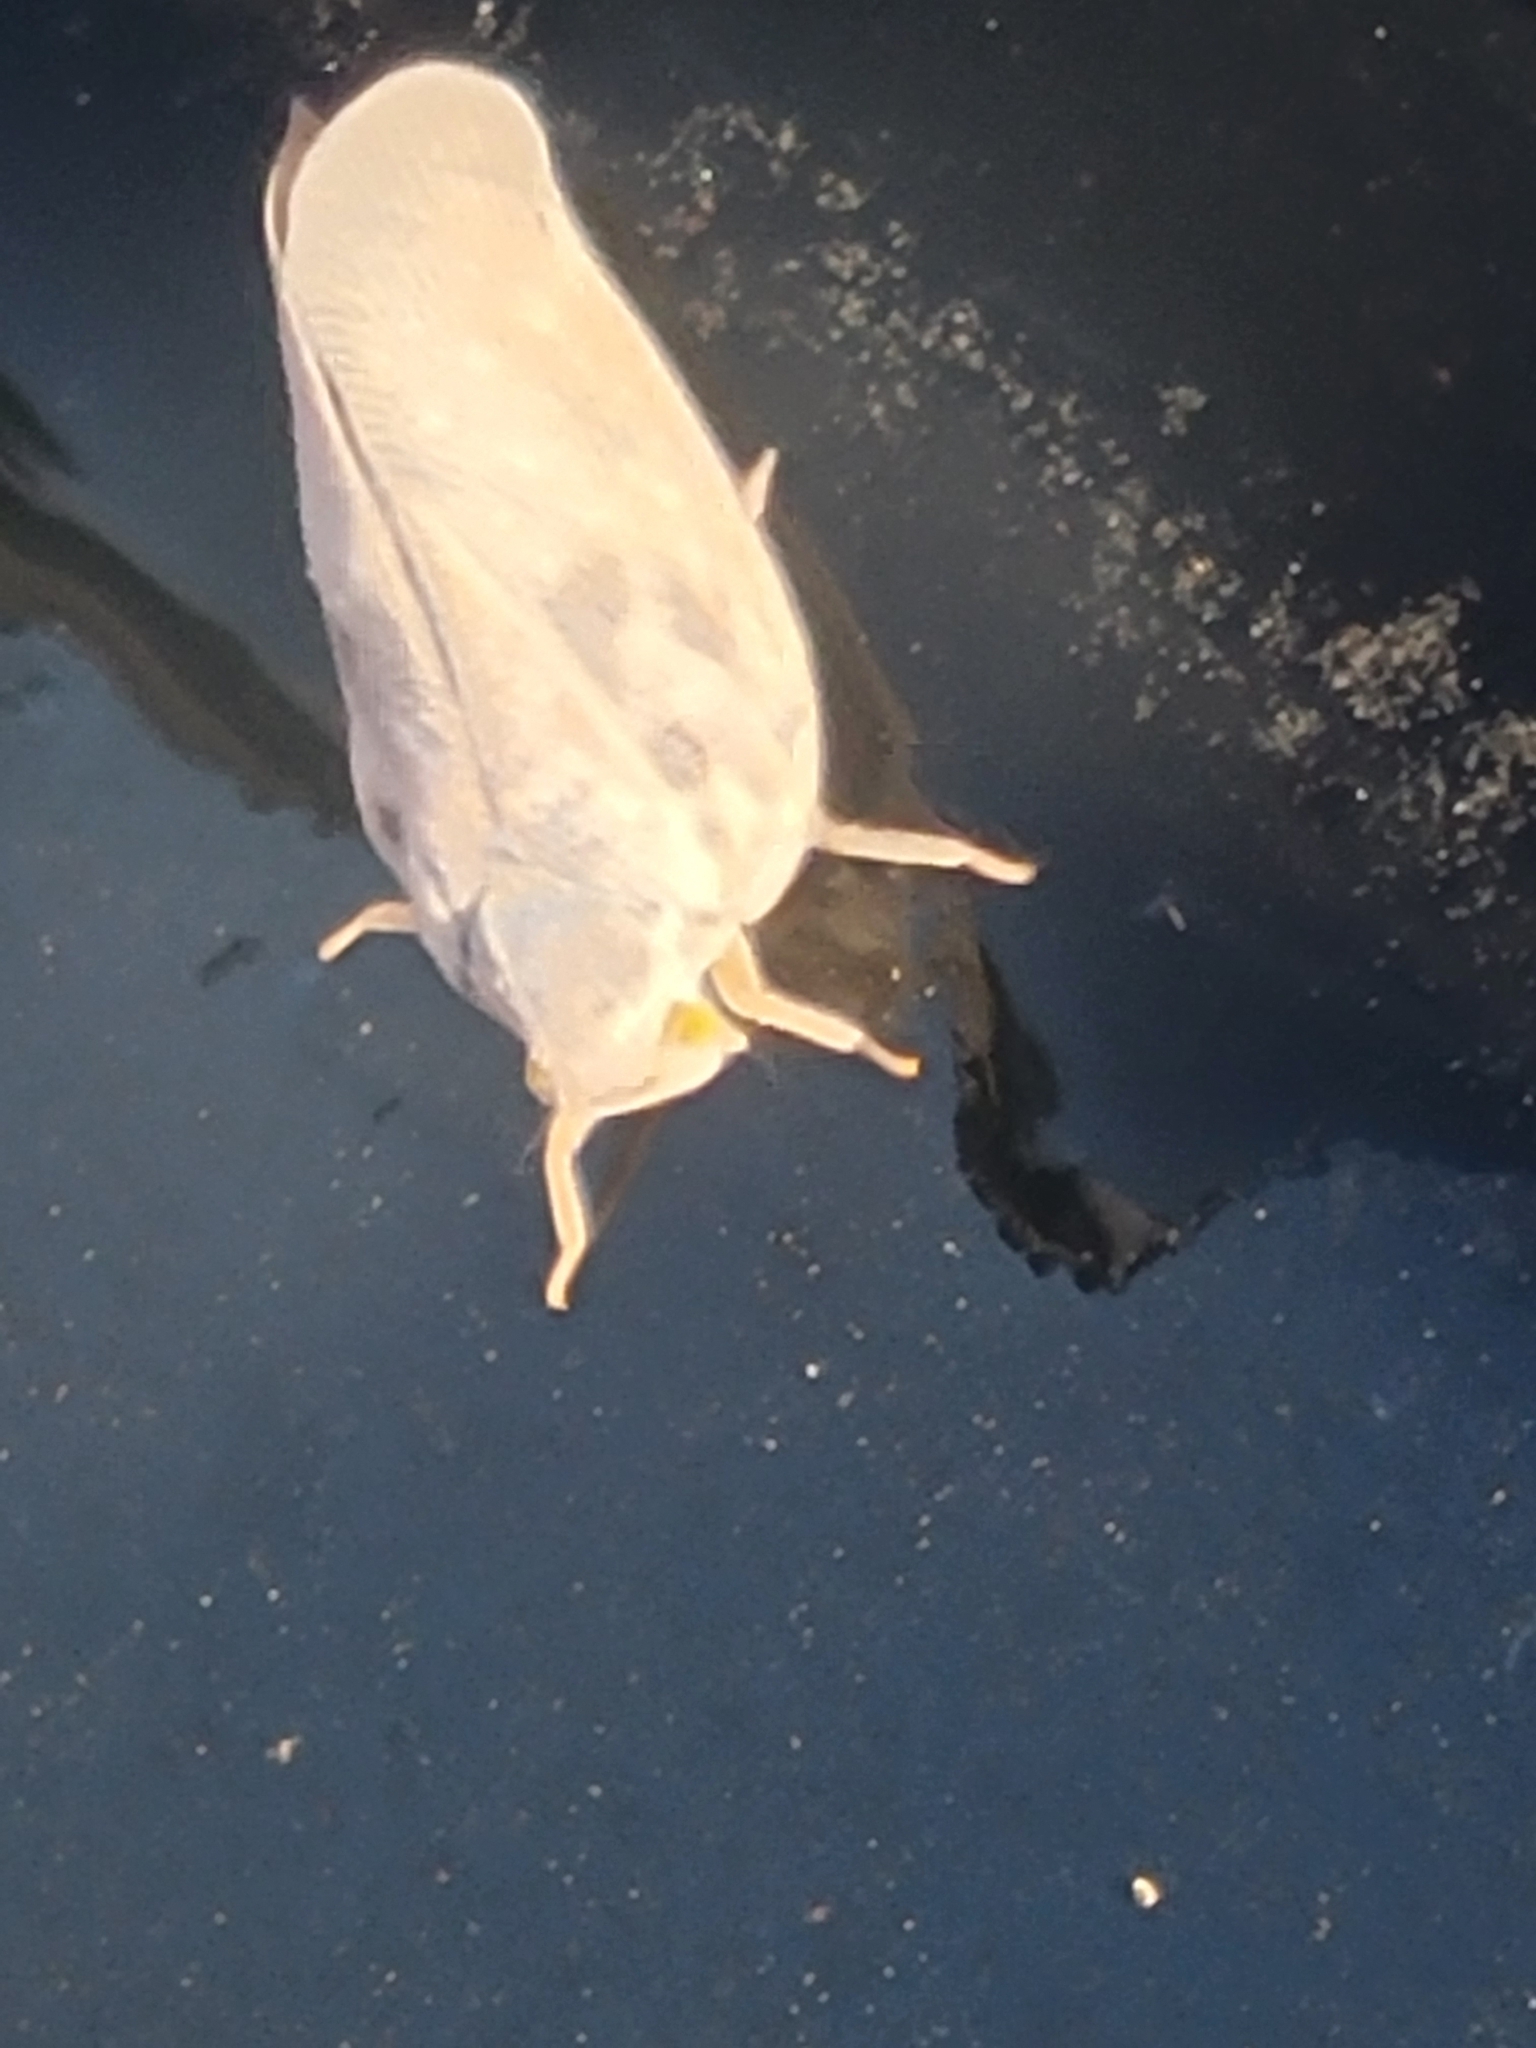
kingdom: Animalia
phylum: Arthropoda
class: Insecta
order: Hemiptera
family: Flatidae
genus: Metcalfa
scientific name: Metcalfa pruinosa
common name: Citrus flatid planthopper
